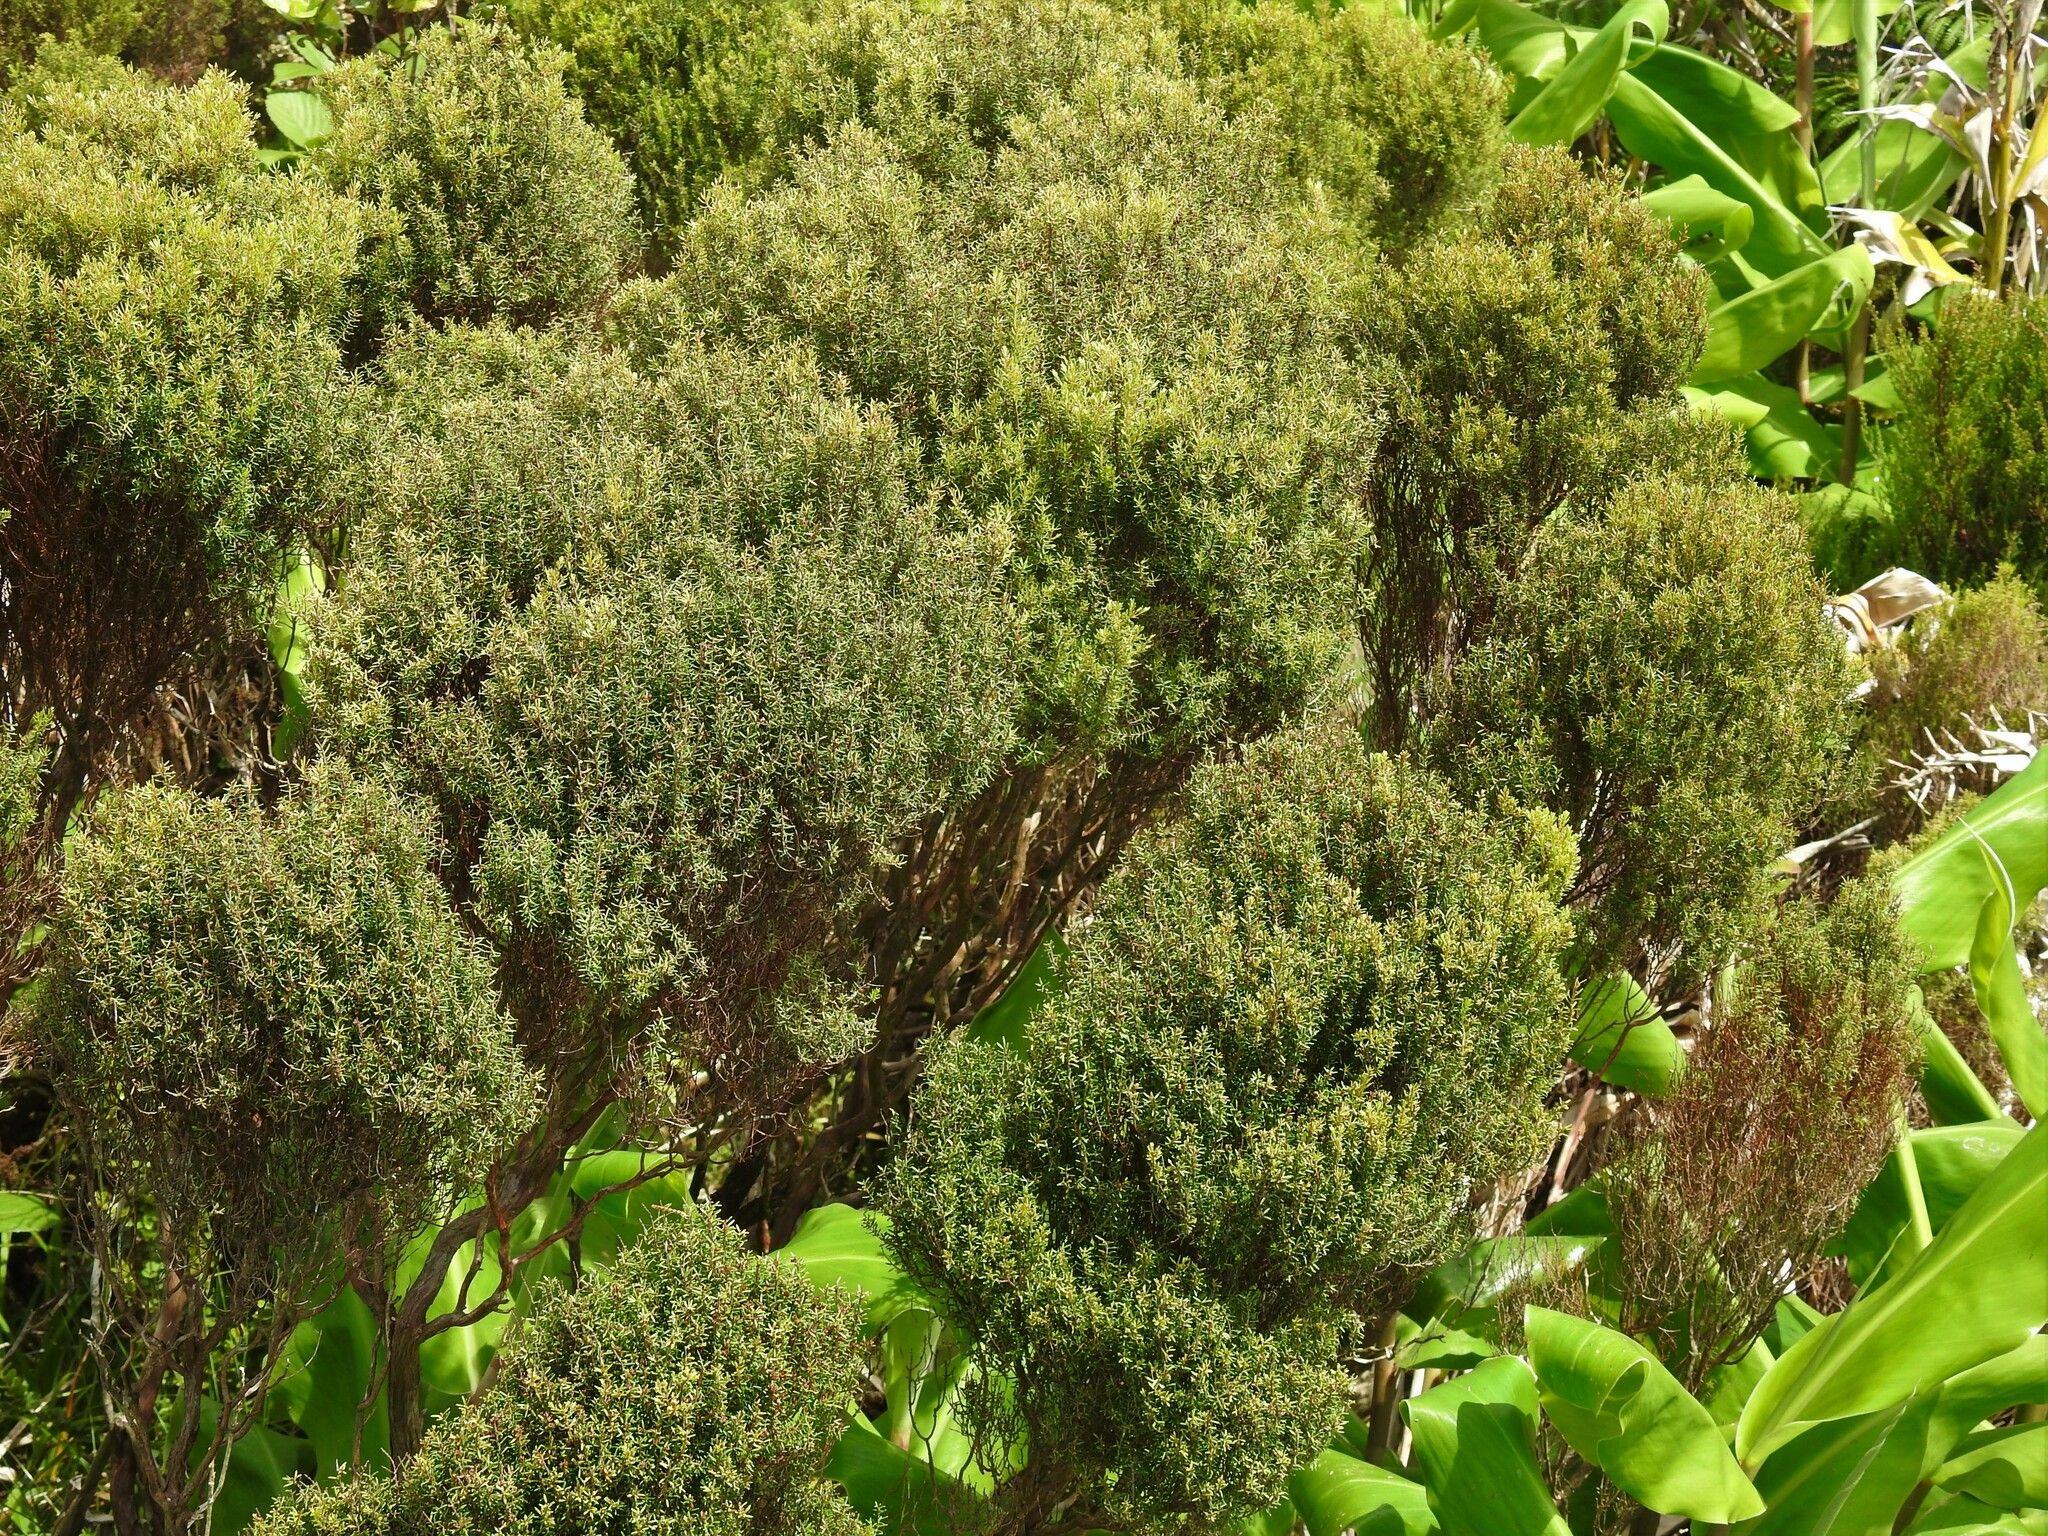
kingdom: Plantae
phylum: Tracheophyta
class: Magnoliopsida
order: Ericales
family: Ericaceae
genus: Erica
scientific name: Erica azorica
